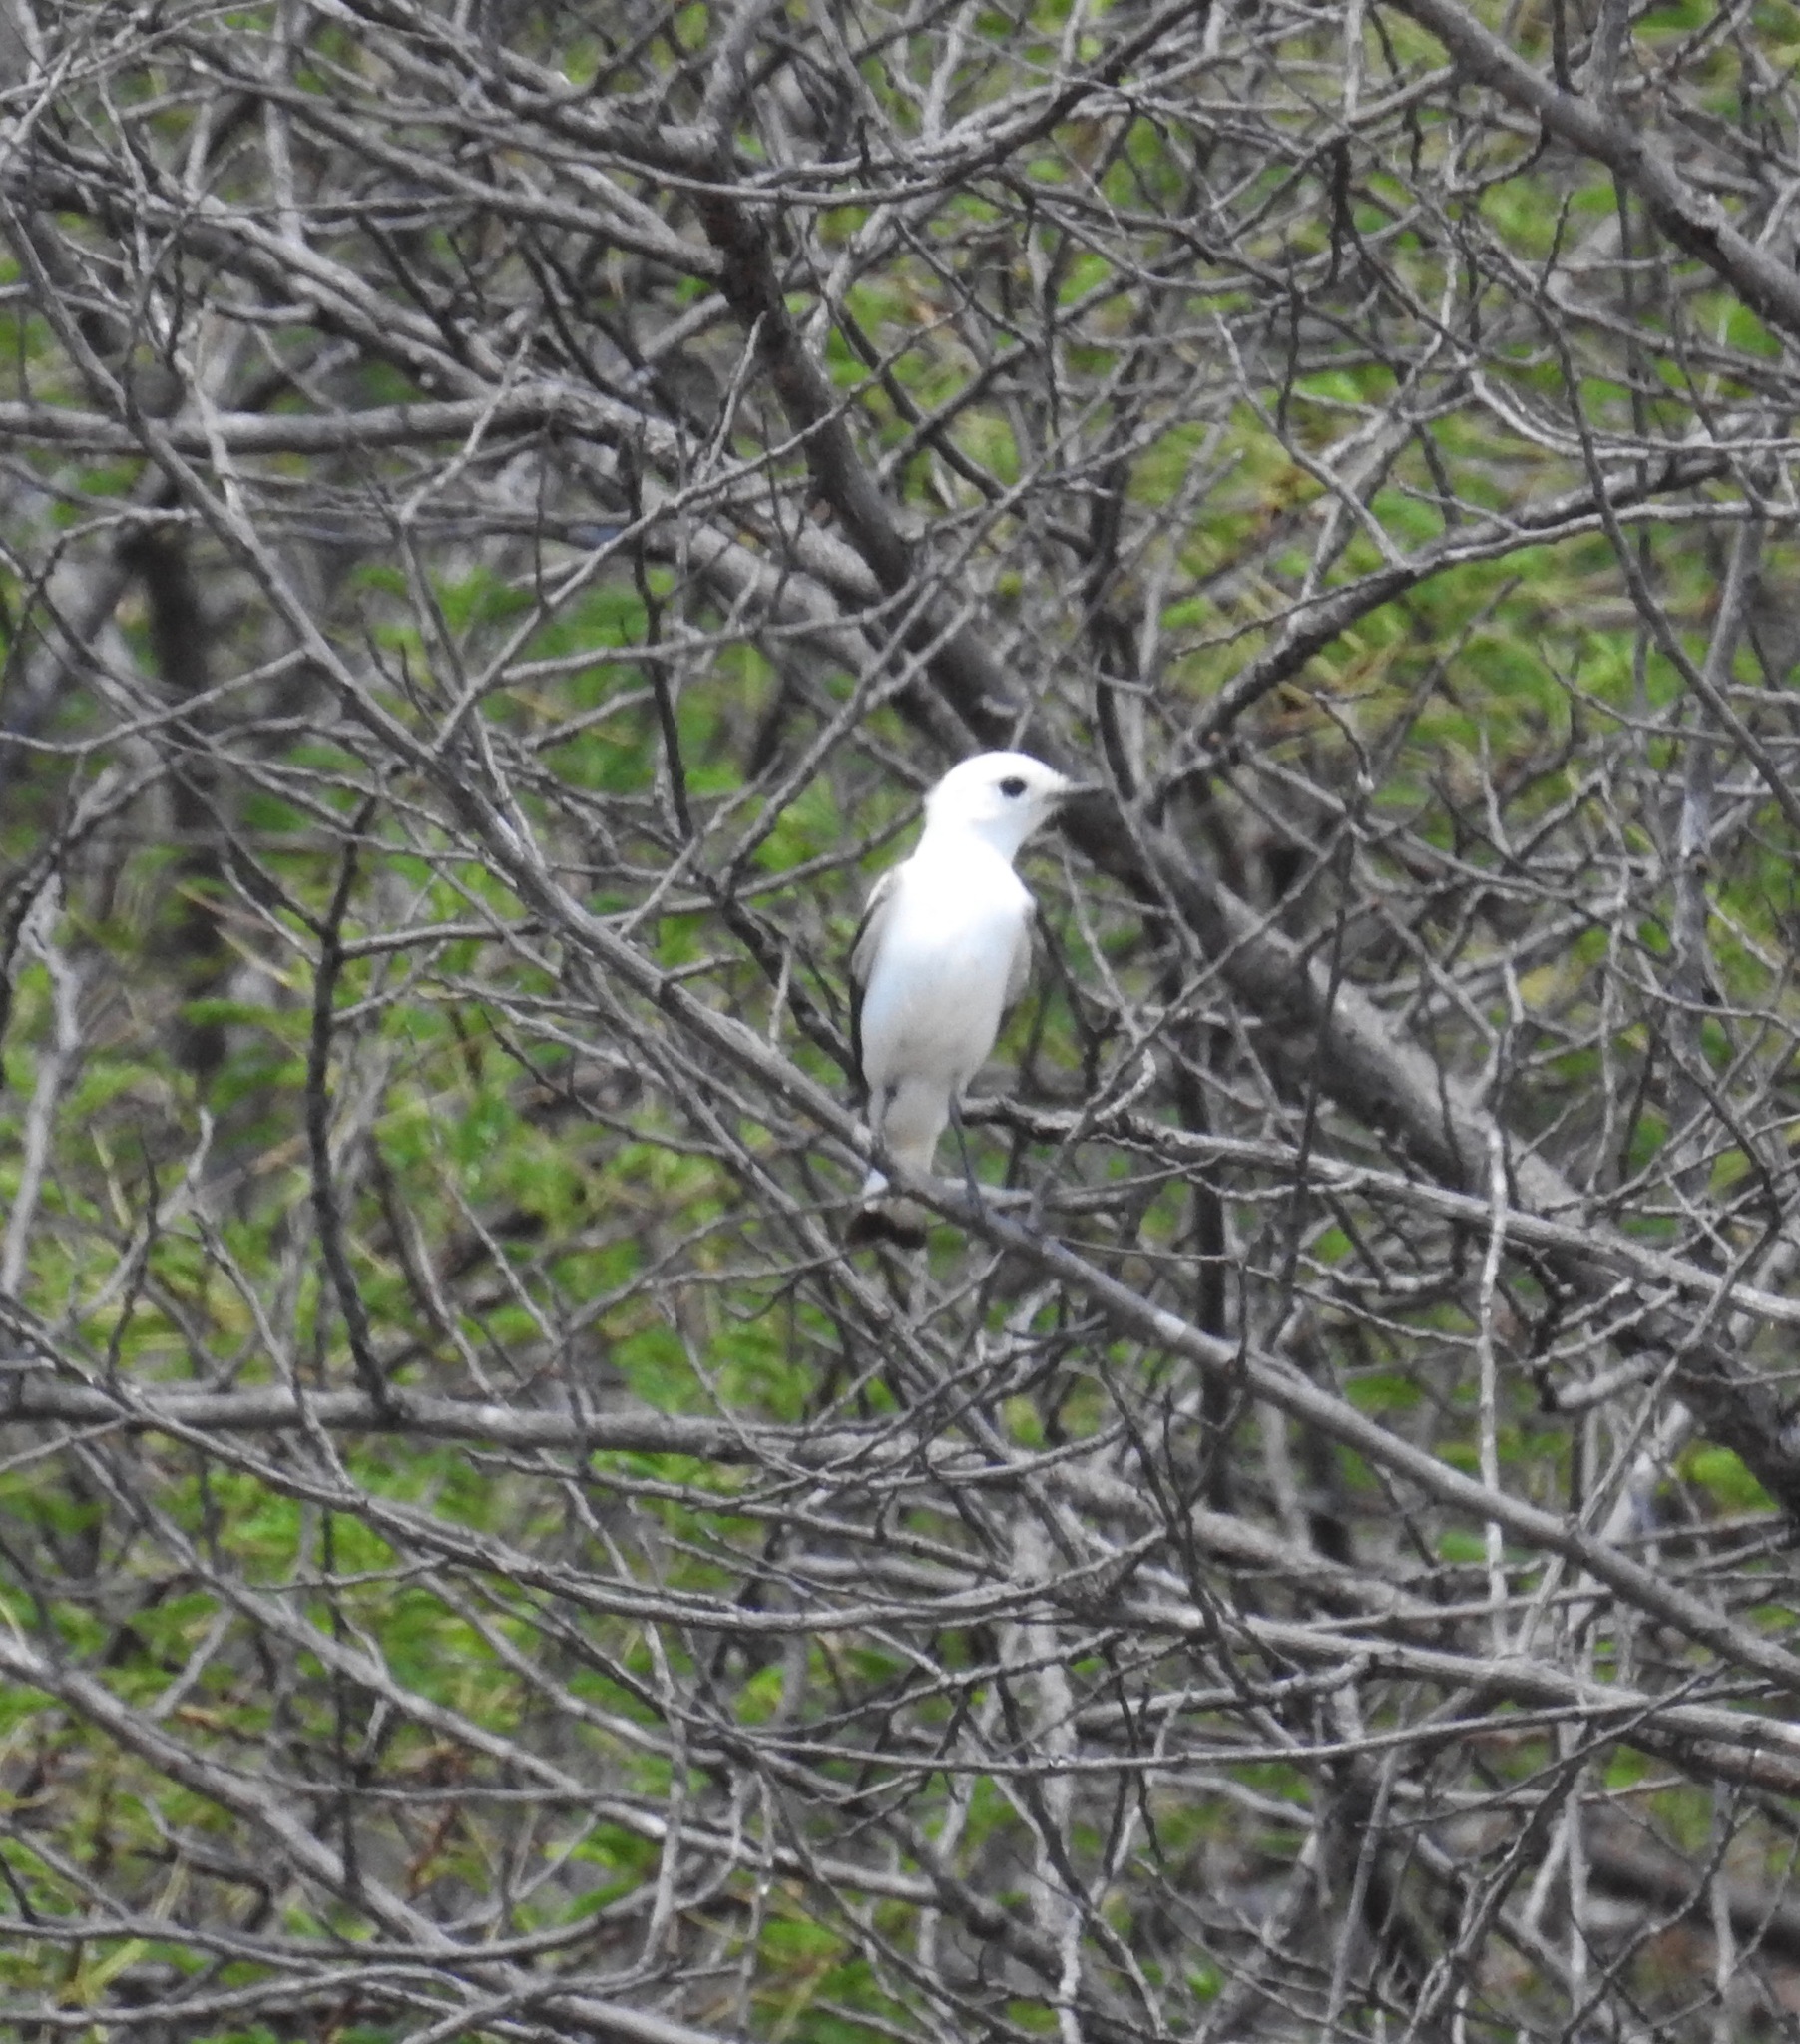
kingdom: Animalia
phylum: Chordata
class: Aves
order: Passeriformes
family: Tyrannidae
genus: Xolmis
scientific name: Xolmis irupero
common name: White monjita
